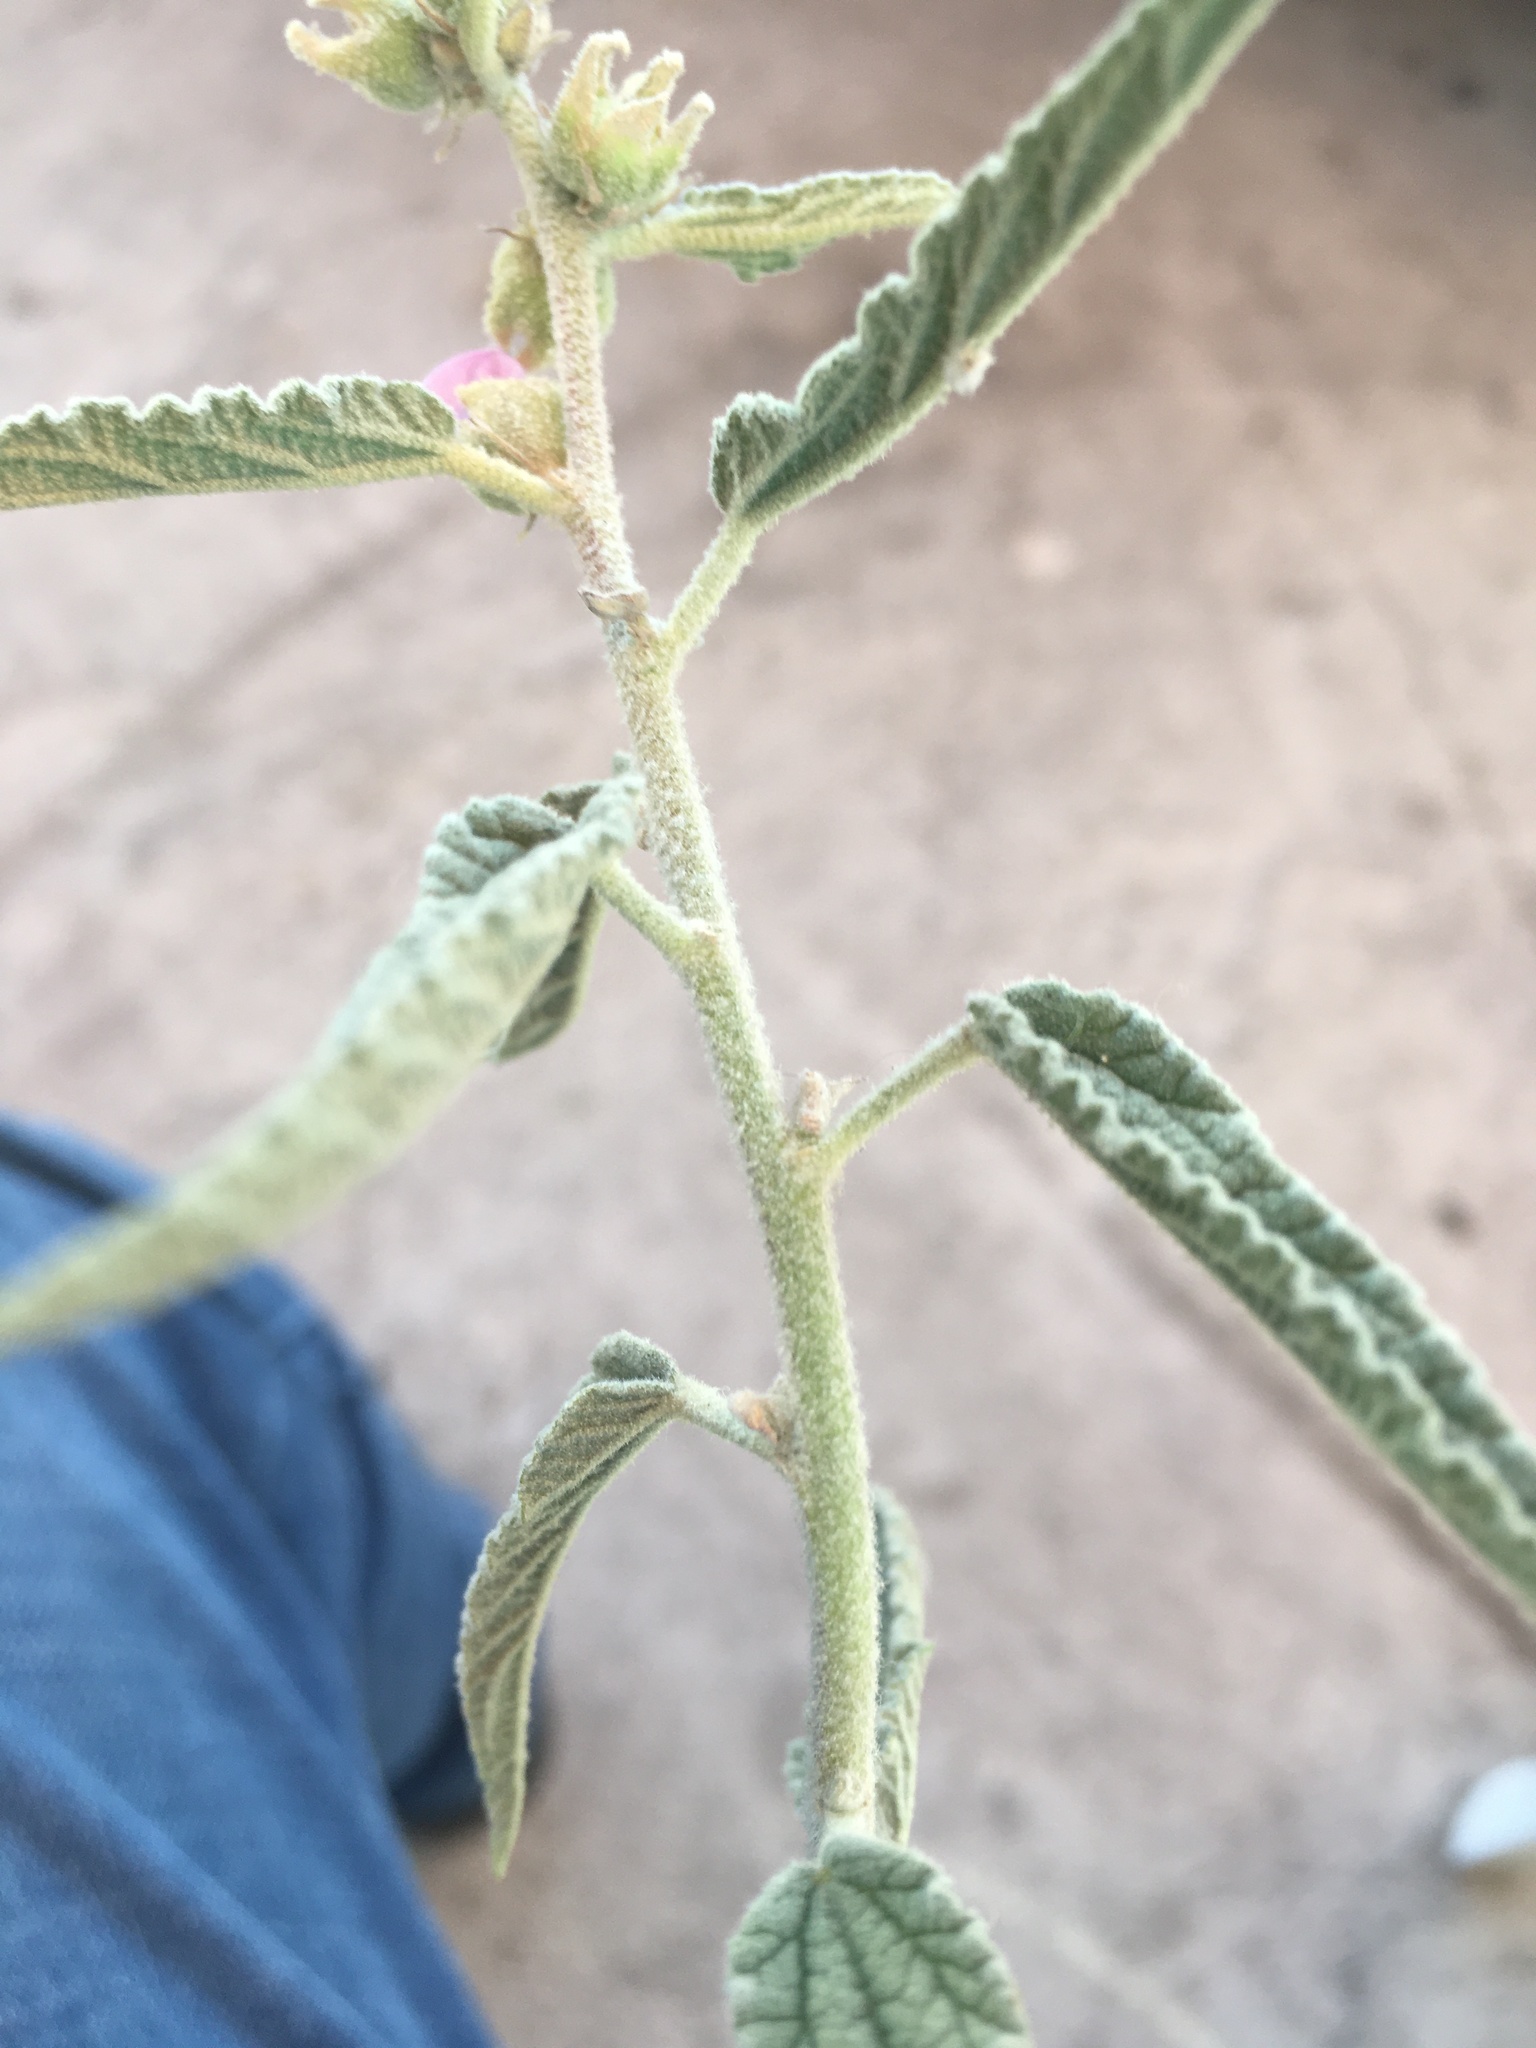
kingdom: Plantae
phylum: Tracheophyta
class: Magnoliopsida
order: Malvales
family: Malvaceae
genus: Sphaeralcea
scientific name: Sphaeralcea angustifolia
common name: Copper globe-mallow
